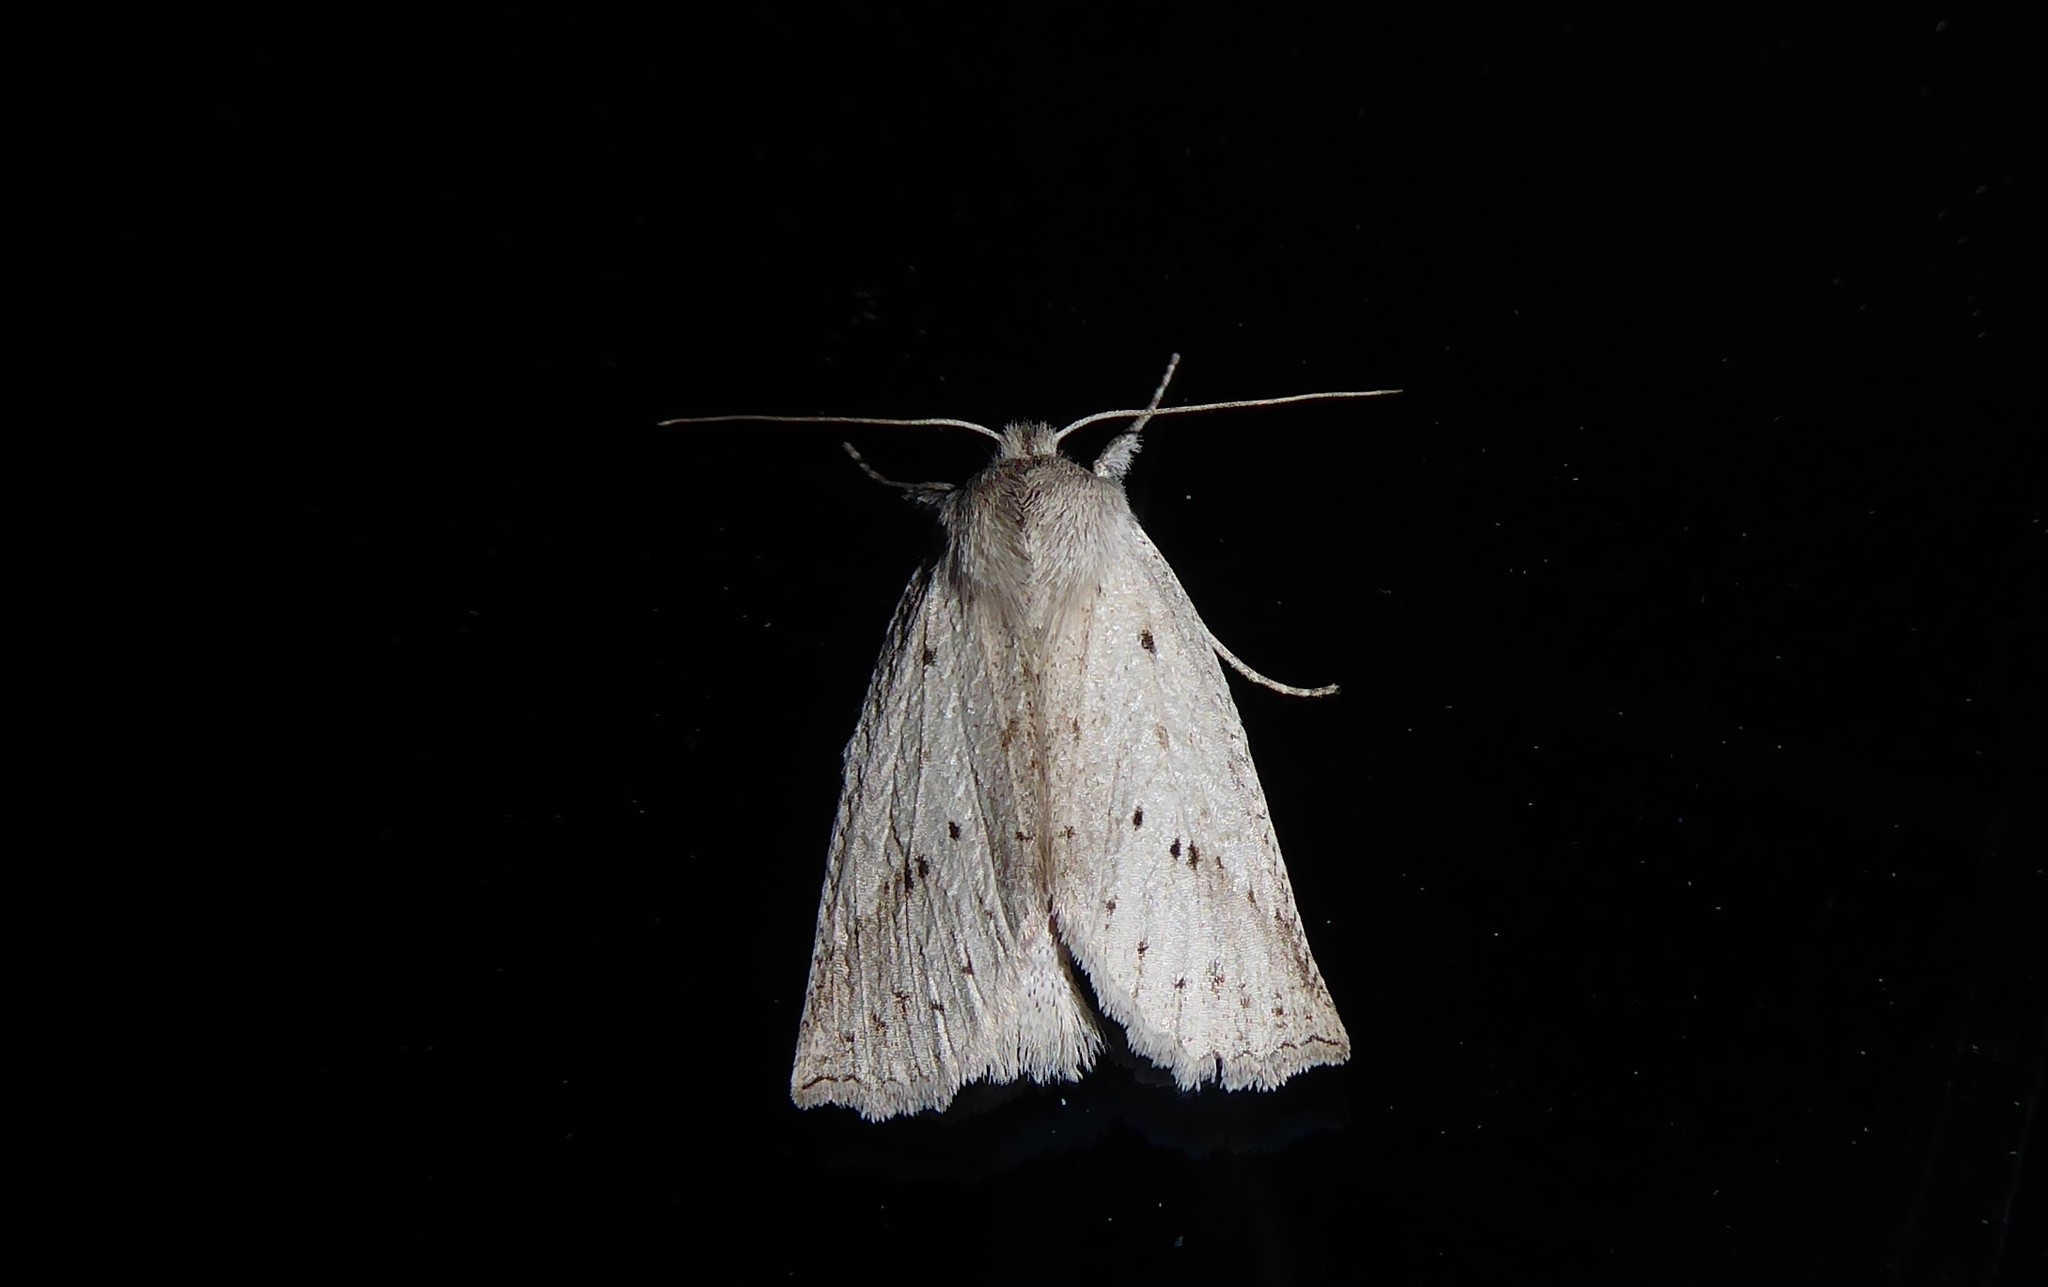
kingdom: Animalia
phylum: Arthropoda
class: Insecta
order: Lepidoptera
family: Geometridae
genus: Declana
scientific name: Declana leptomera
